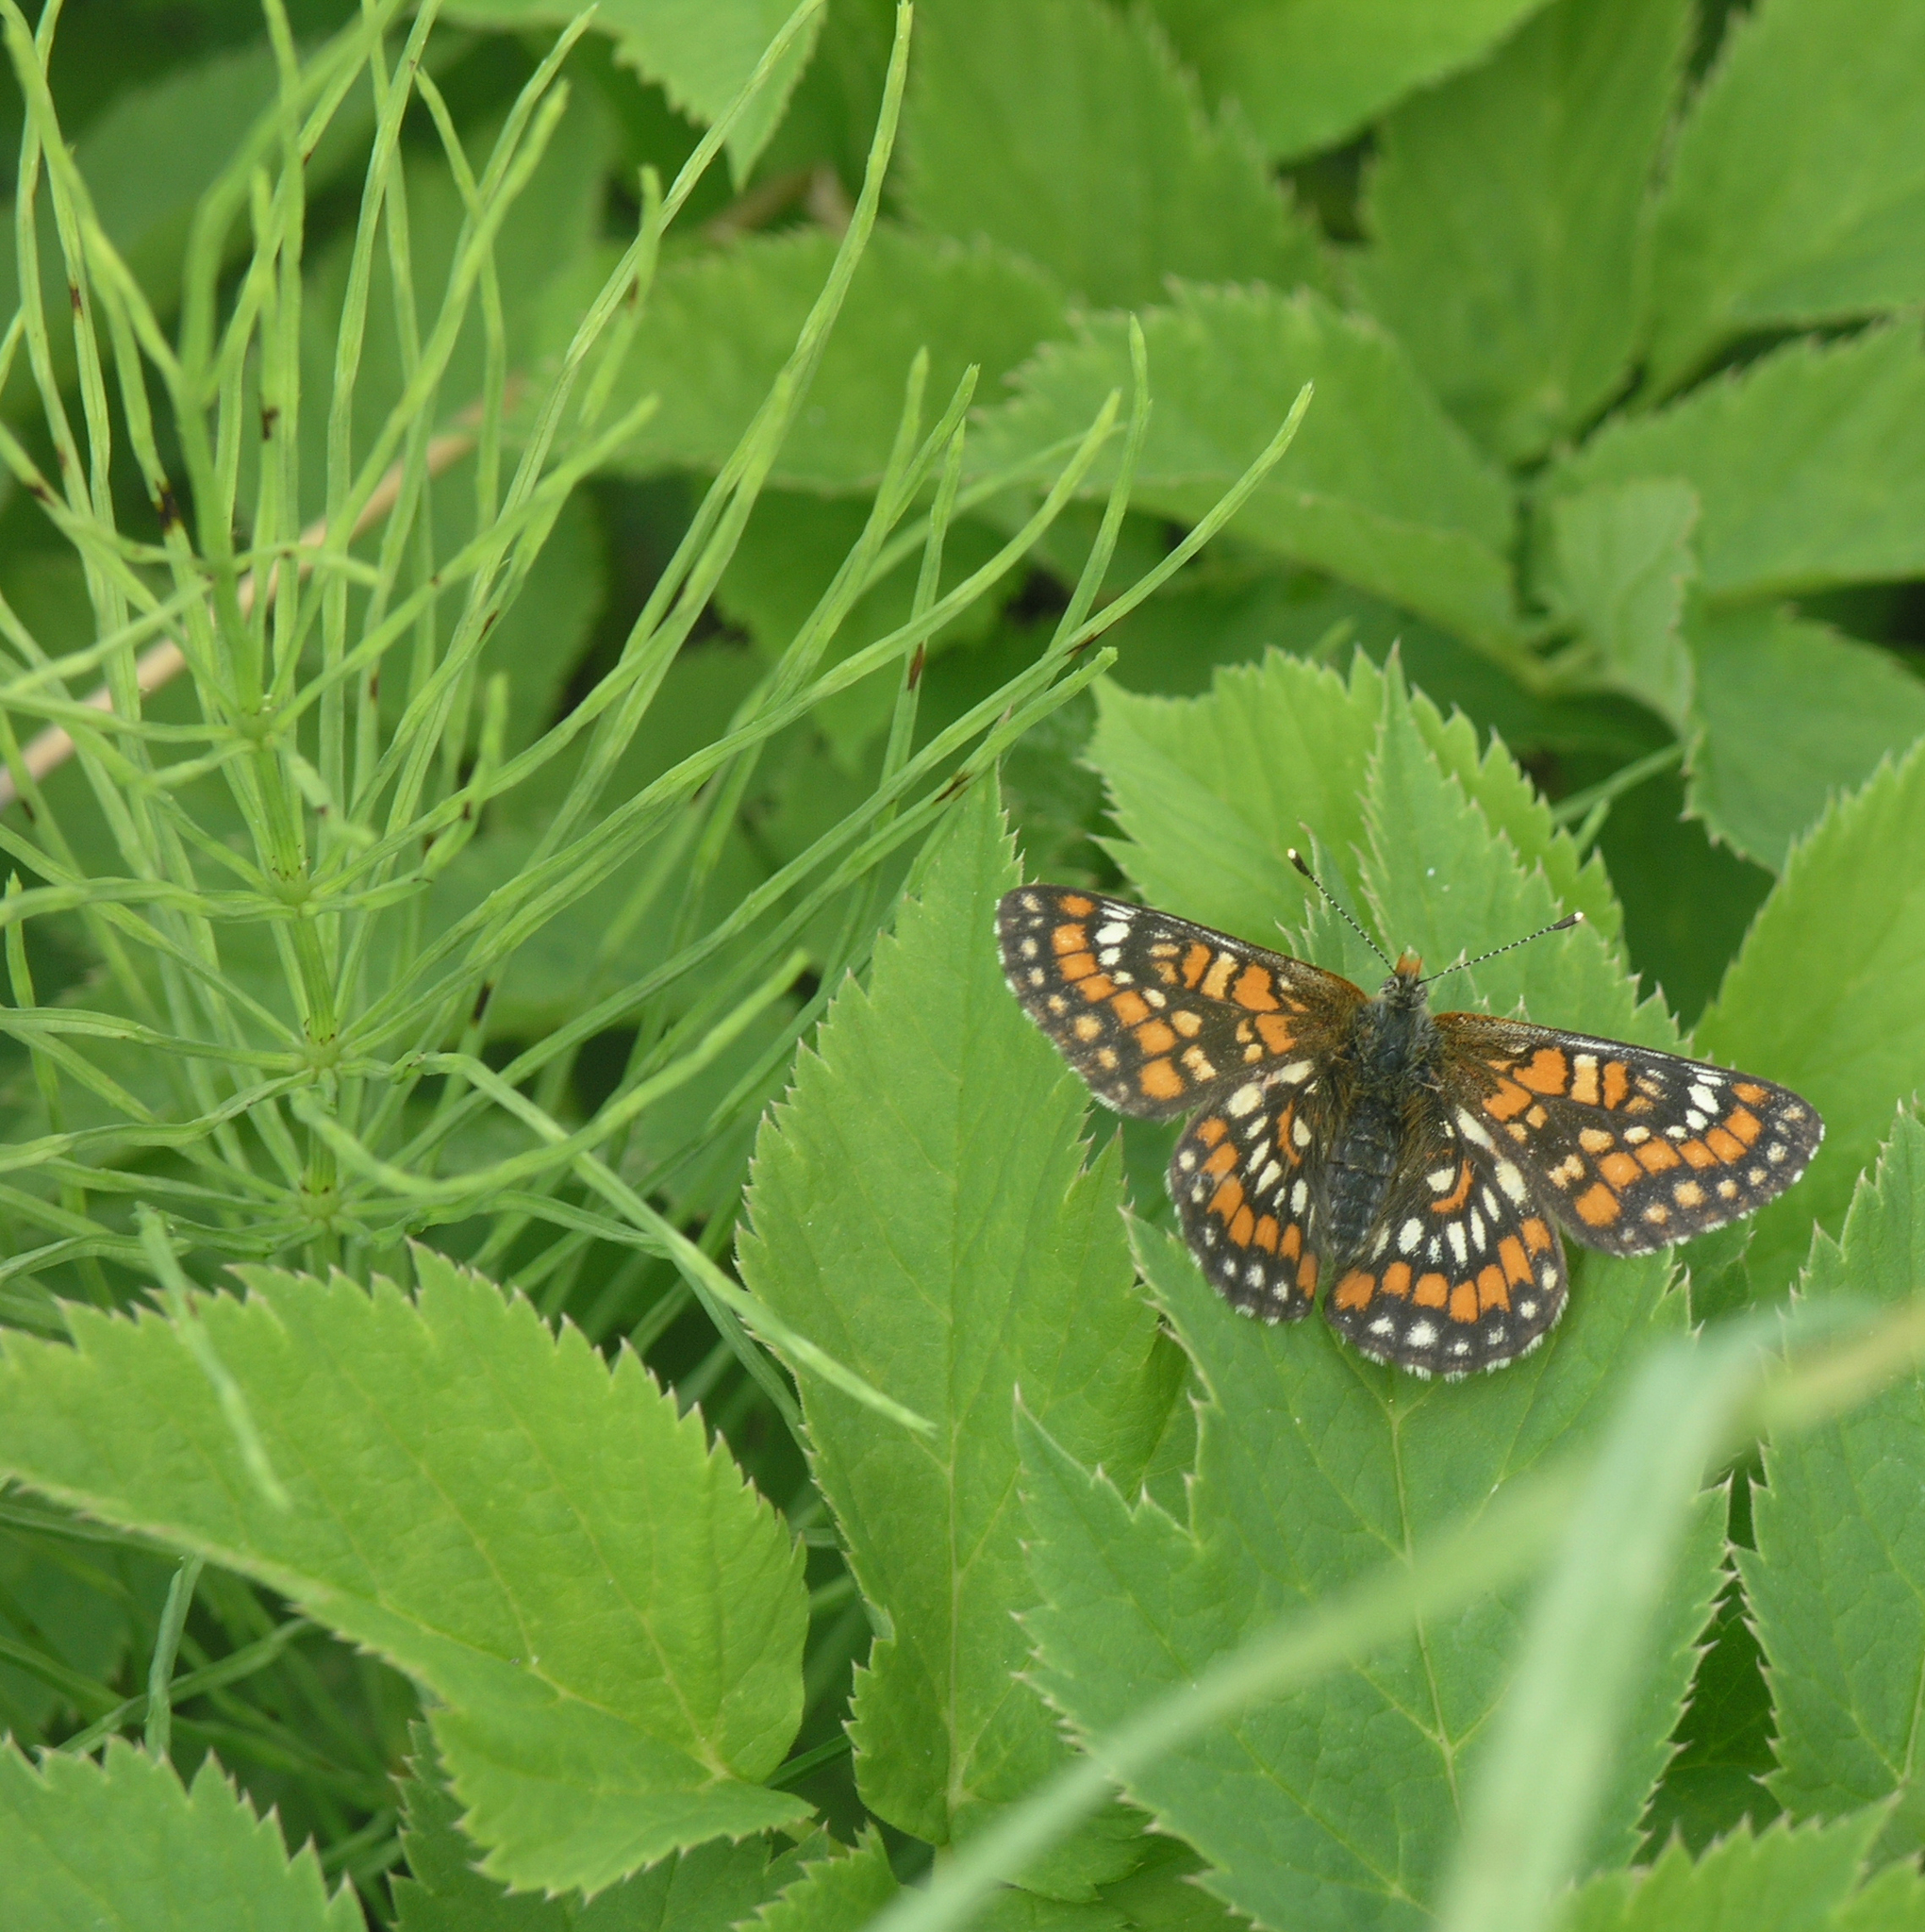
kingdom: Plantae
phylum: Tracheophyta
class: Polypodiopsida
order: Equisetales
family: Equisetaceae
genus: Equisetum
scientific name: Equisetum arvense
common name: Field horsetail
